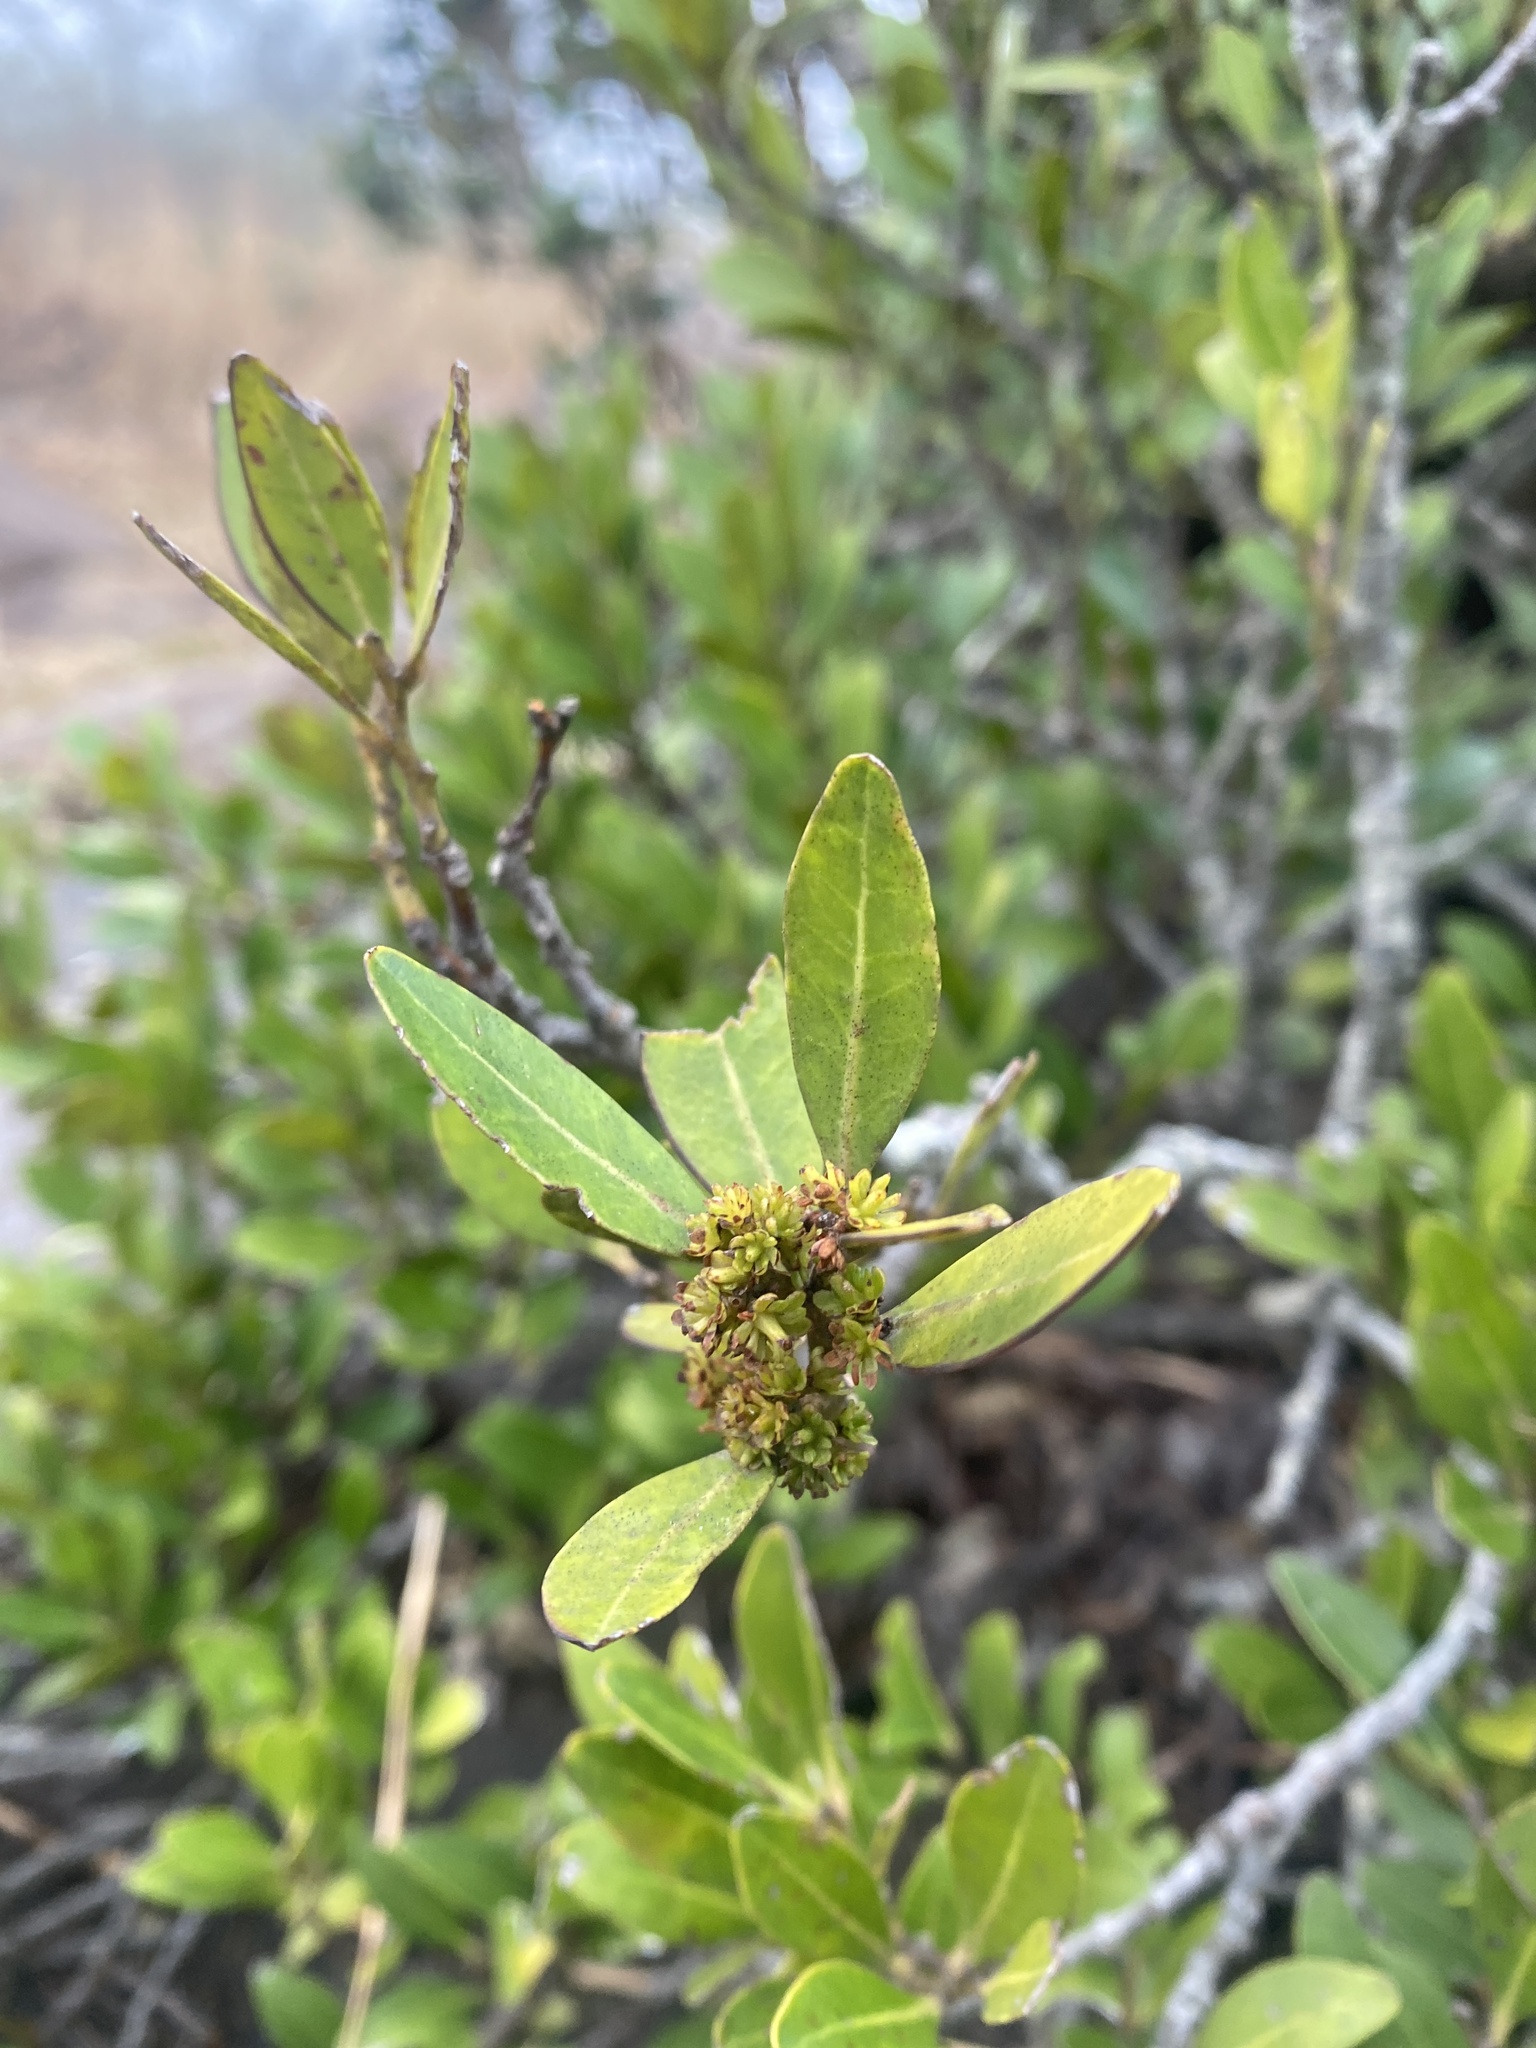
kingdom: Plantae
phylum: Tracheophyta
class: Magnoliopsida
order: Celastrales
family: Celastraceae
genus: Pterocelastrus
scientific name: Pterocelastrus echinatus
